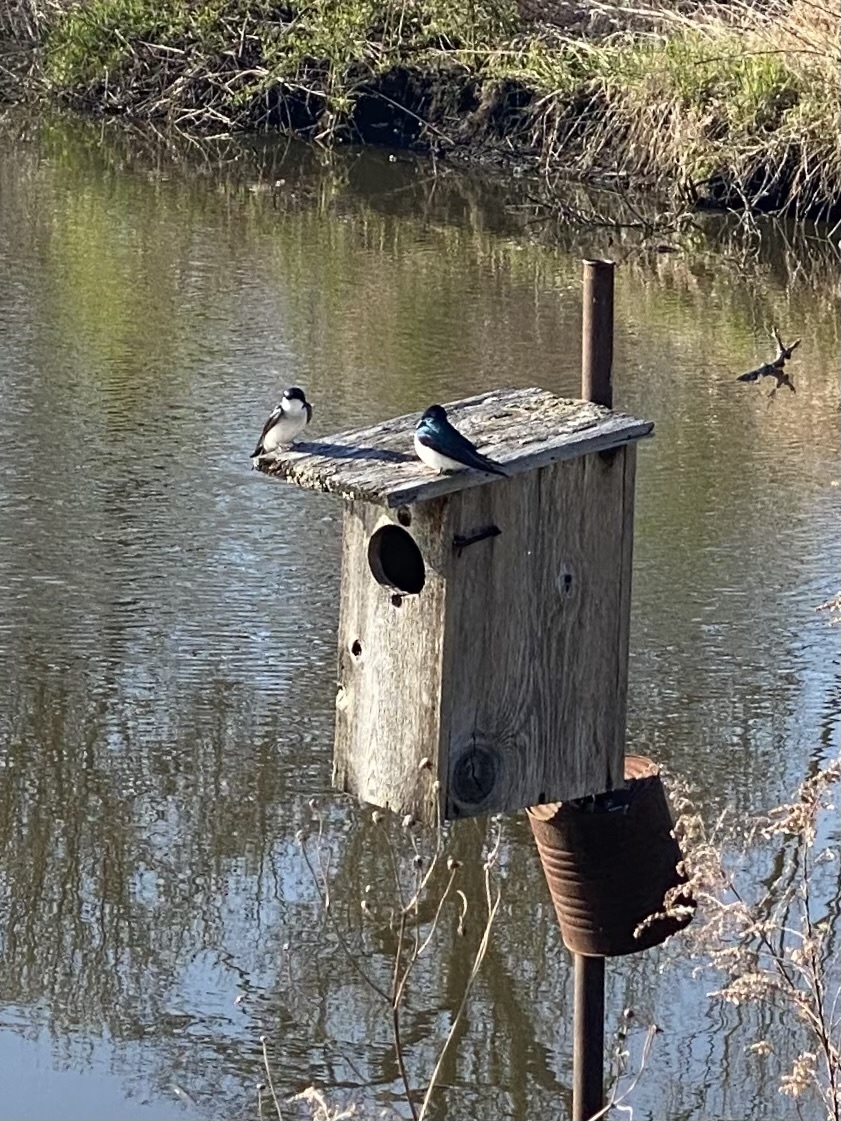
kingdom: Animalia
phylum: Chordata
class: Aves
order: Passeriformes
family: Hirundinidae
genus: Tachycineta
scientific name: Tachycineta bicolor
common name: Tree swallow
